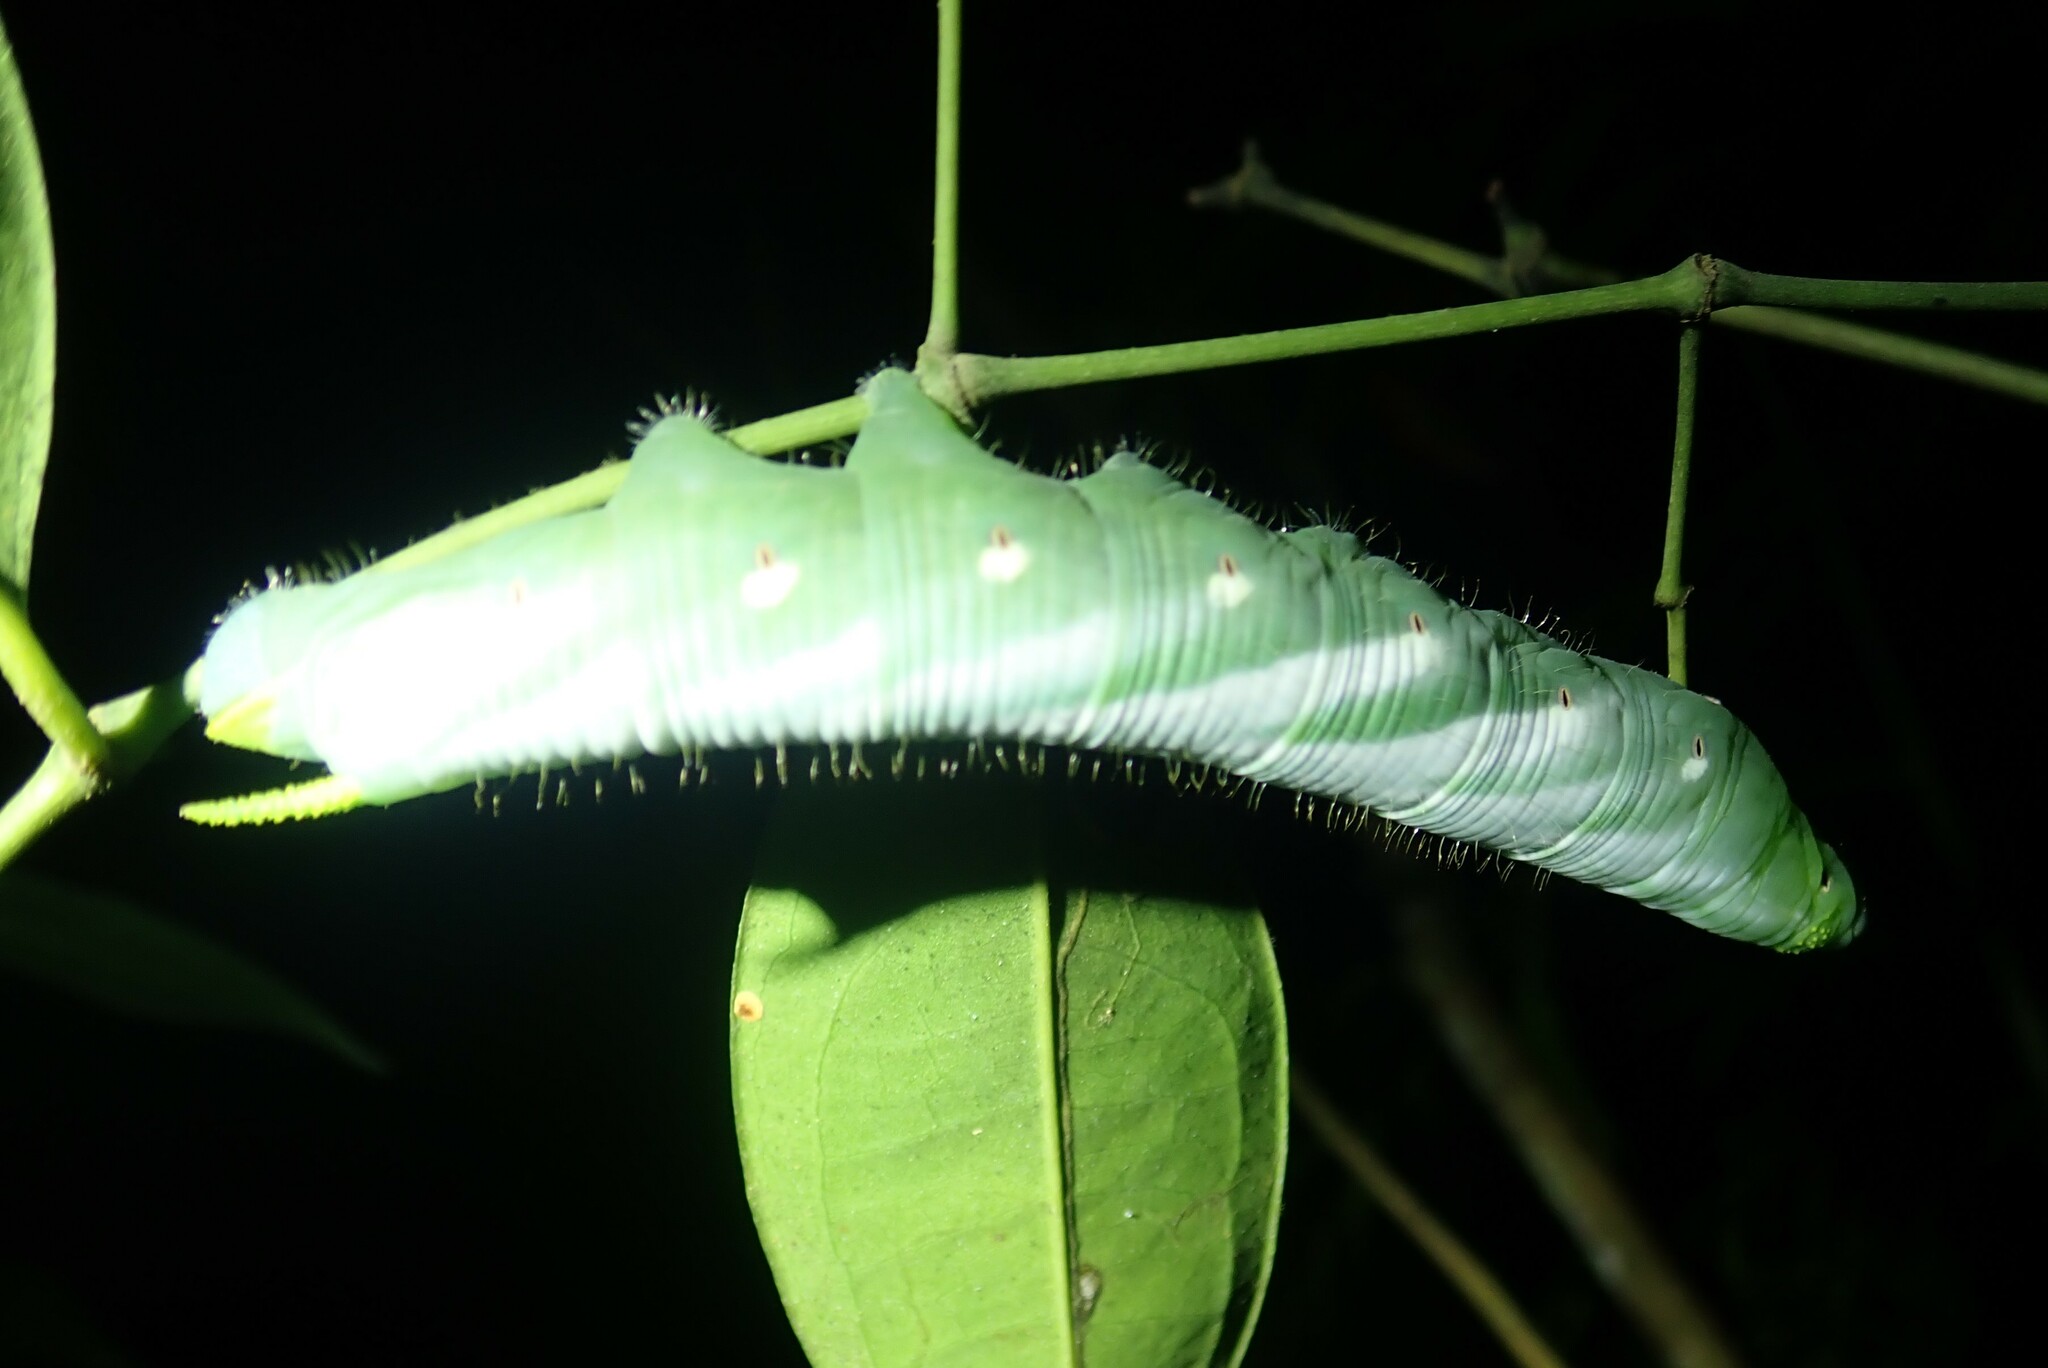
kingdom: Animalia
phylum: Arthropoda
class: Insecta
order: Lepidoptera
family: Sphingidae
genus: Neococytius
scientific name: Neococytius cluentius
